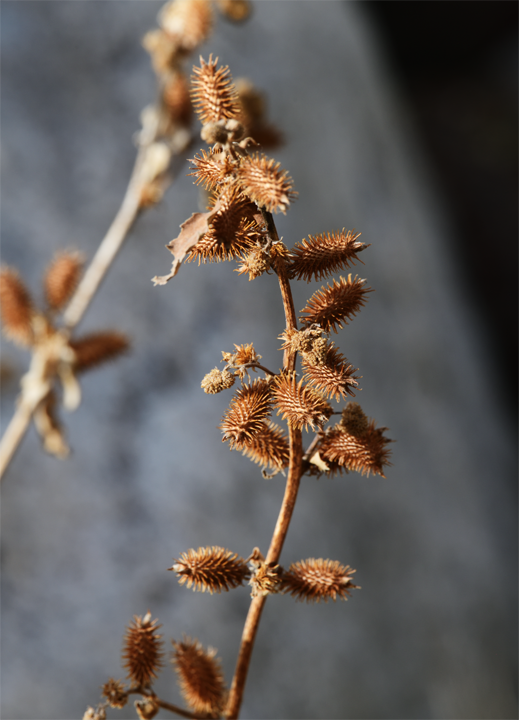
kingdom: Plantae
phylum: Tracheophyta
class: Magnoliopsida
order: Asterales
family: Asteraceae
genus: Xanthium
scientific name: Xanthium strumarium
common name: Rough cocklebur
